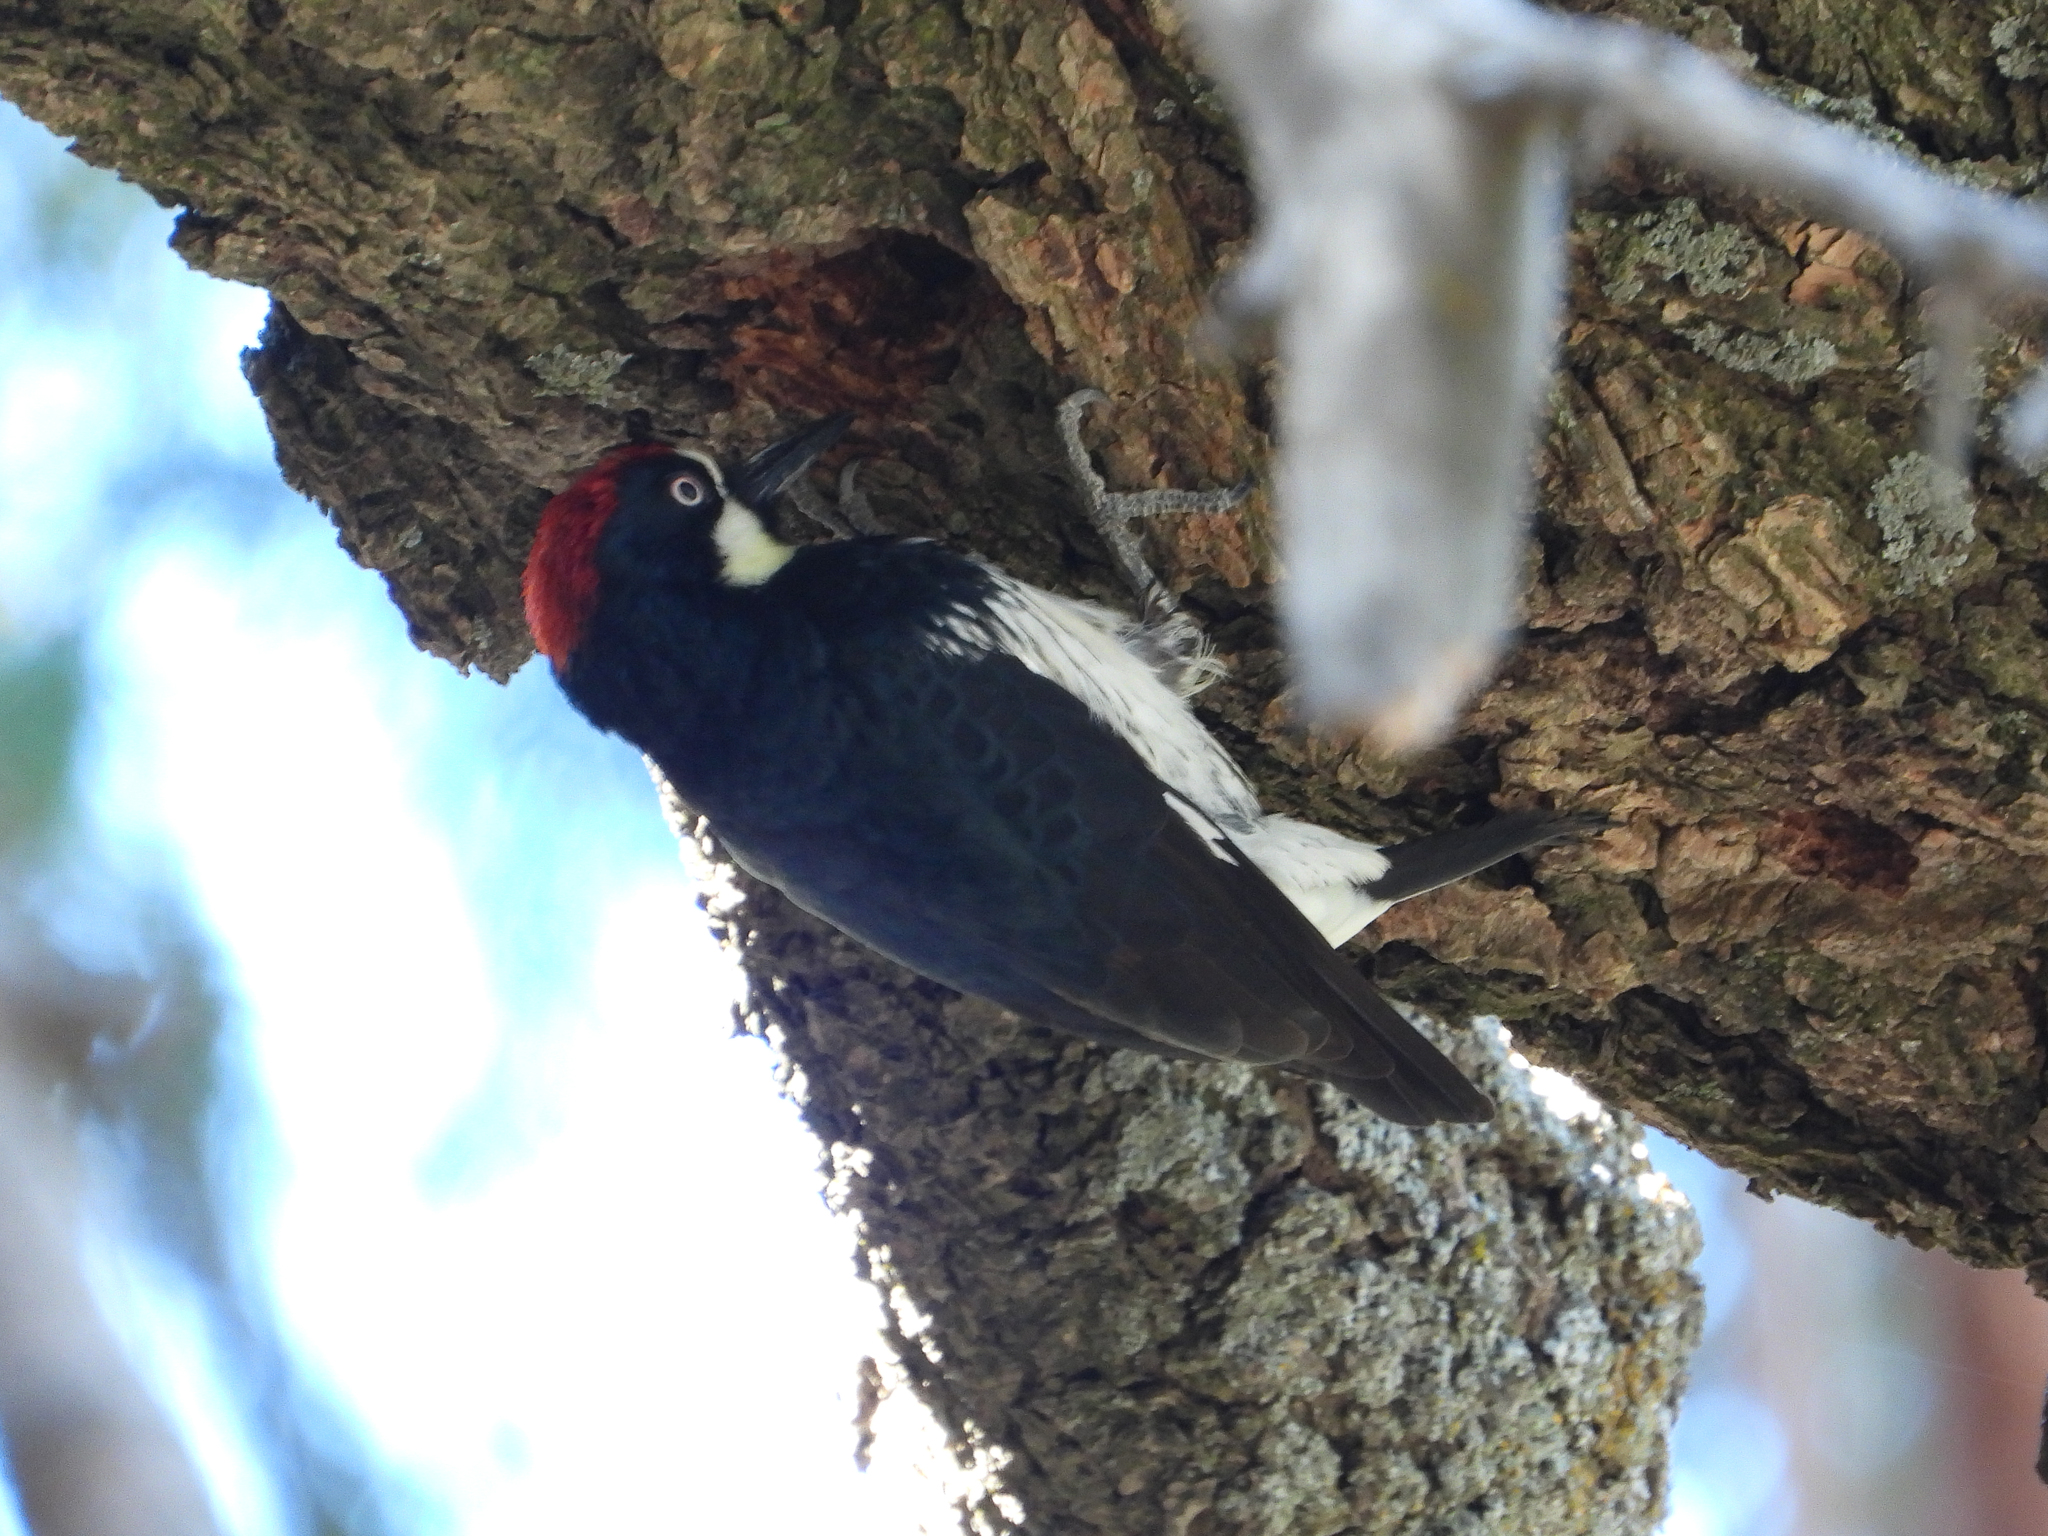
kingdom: Animalia
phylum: Chordata
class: Aves
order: Piciformes
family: Picidae
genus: Melanerpes
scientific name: Melanerpes formicivorus
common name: Acorn woodpecker
